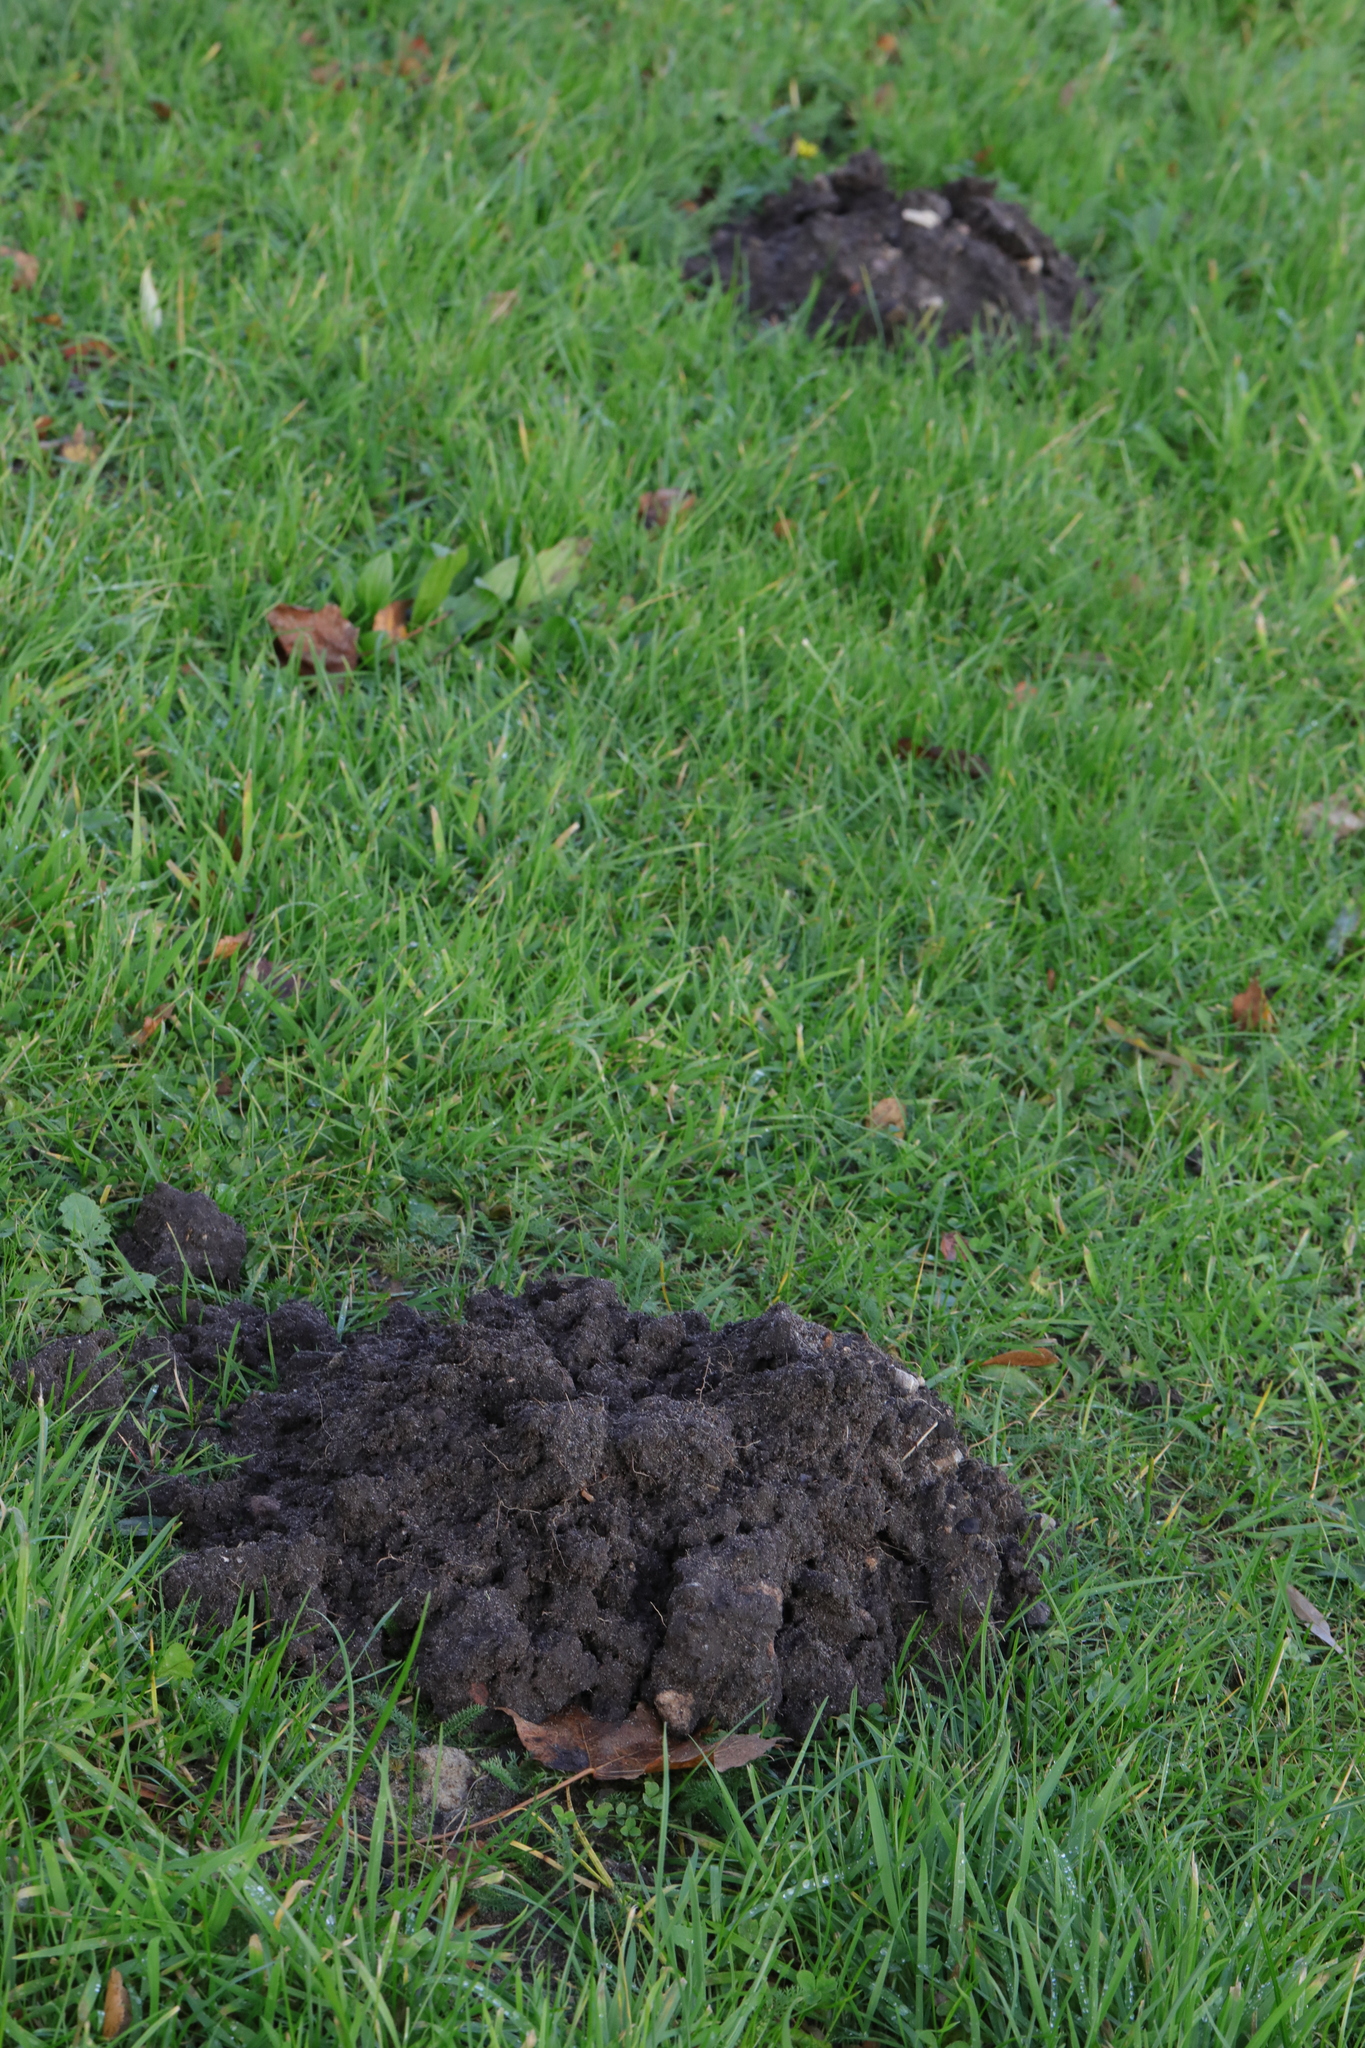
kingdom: Animalia
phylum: Chordata
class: Mammalia
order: Soricomorpha
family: Talpidae
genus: Talpa
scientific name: Talpa europaea
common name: European mole
